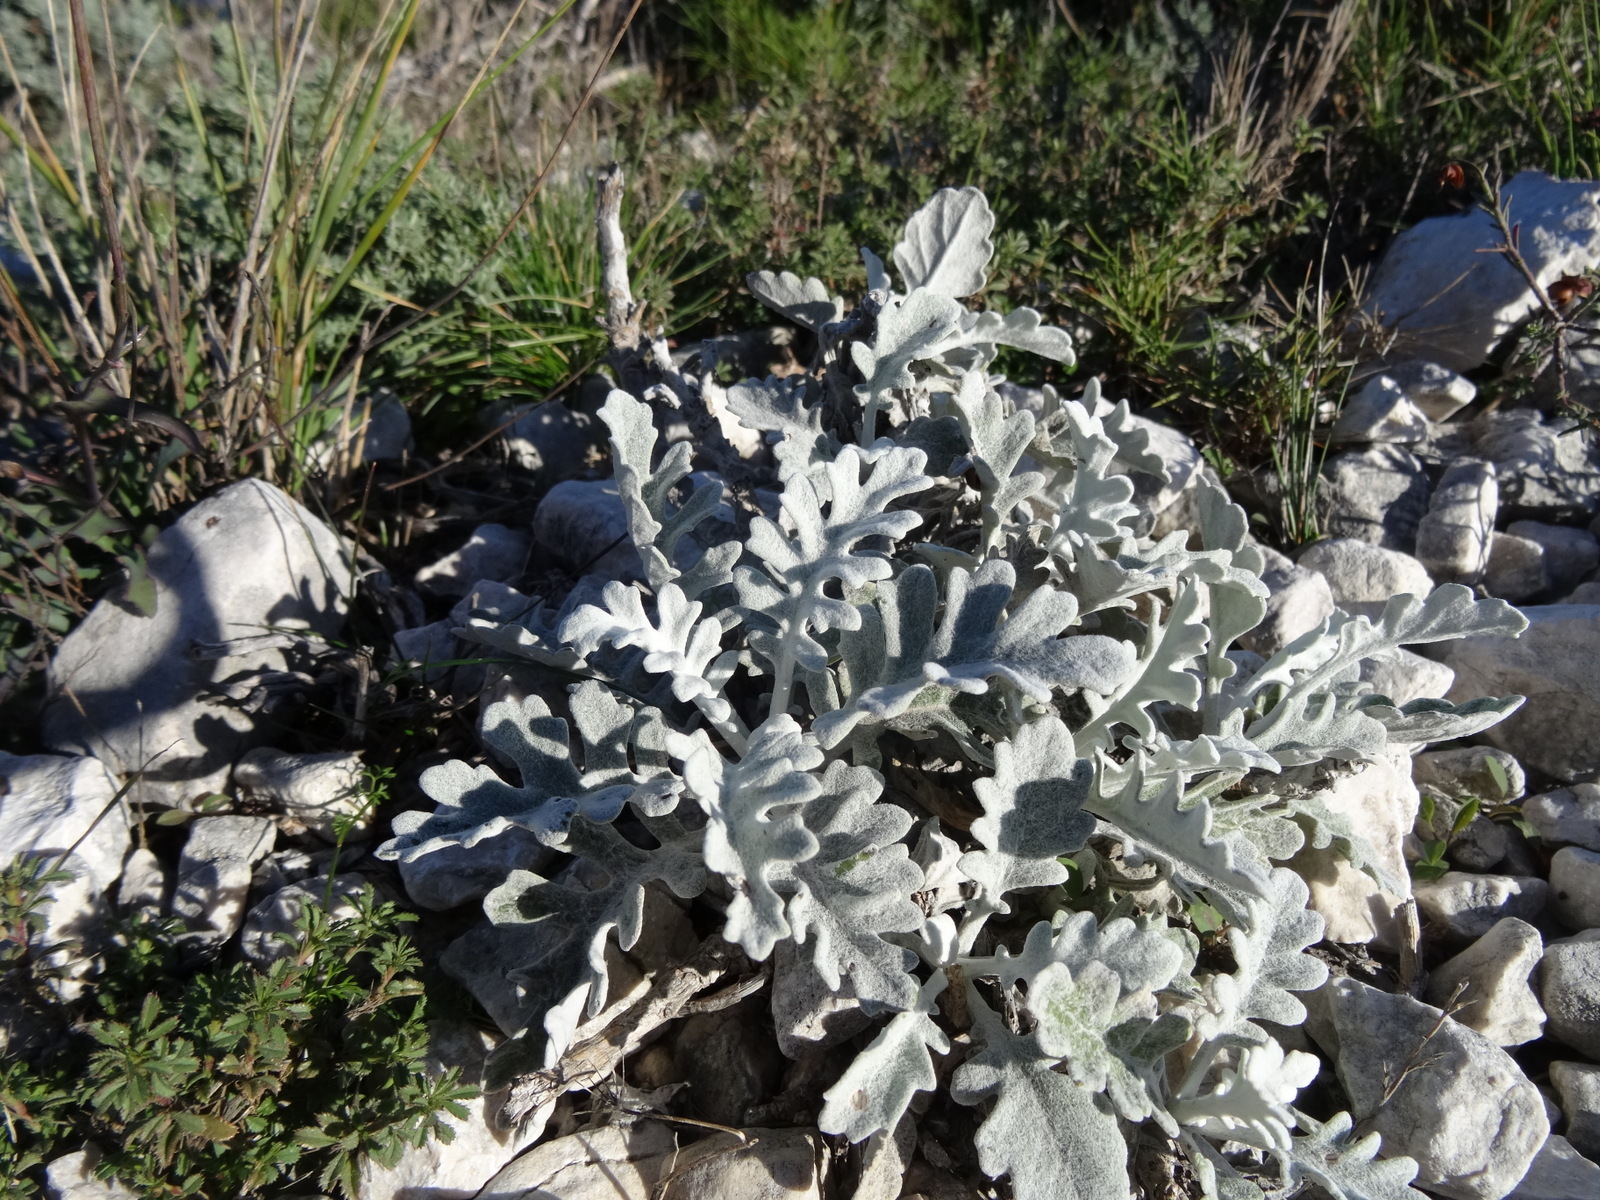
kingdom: Plantae
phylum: Tracheophyta
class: Magnoliopsida
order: Asterales
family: Asteraceae
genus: Jacobaea
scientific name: Jacobaea maritima
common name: Silver ragwort
